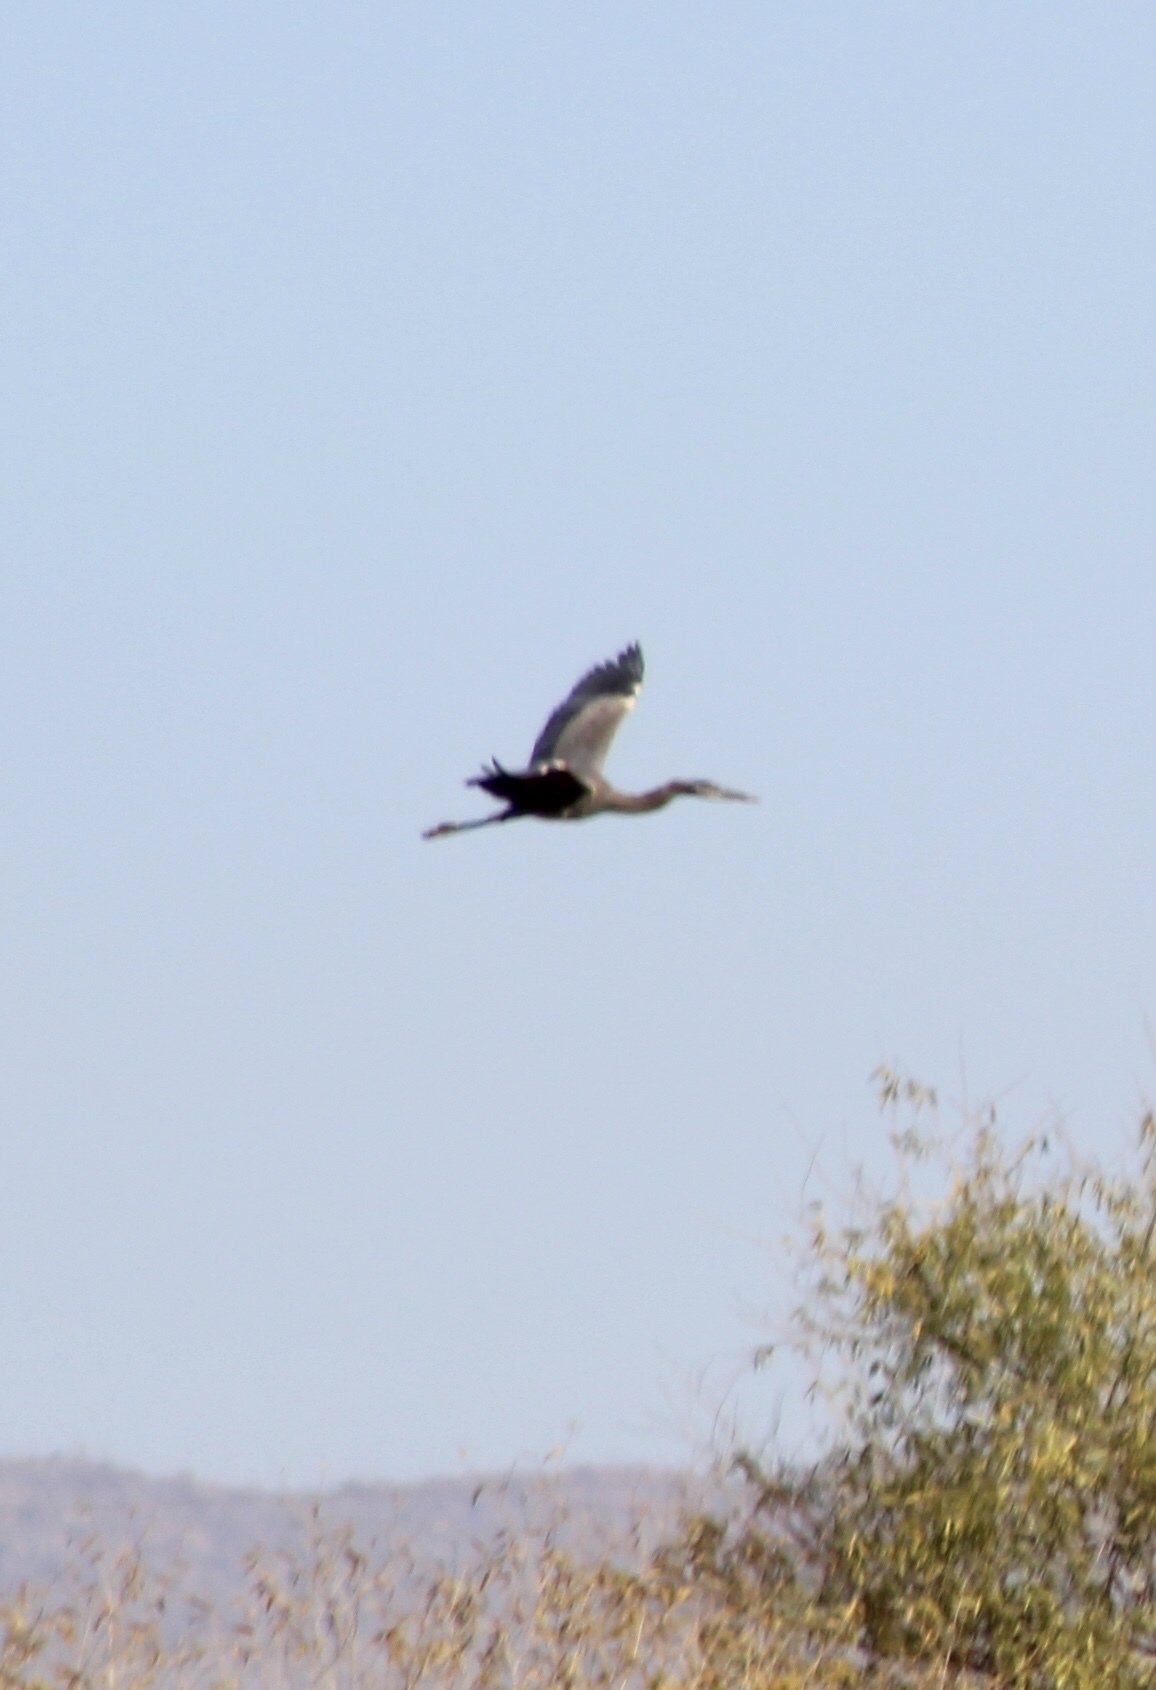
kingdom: Animalia
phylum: Chordata
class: Aves
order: Pelecaniformes
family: Ardeidae
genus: Ardea
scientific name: Ardea herodias
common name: Great blue heron
